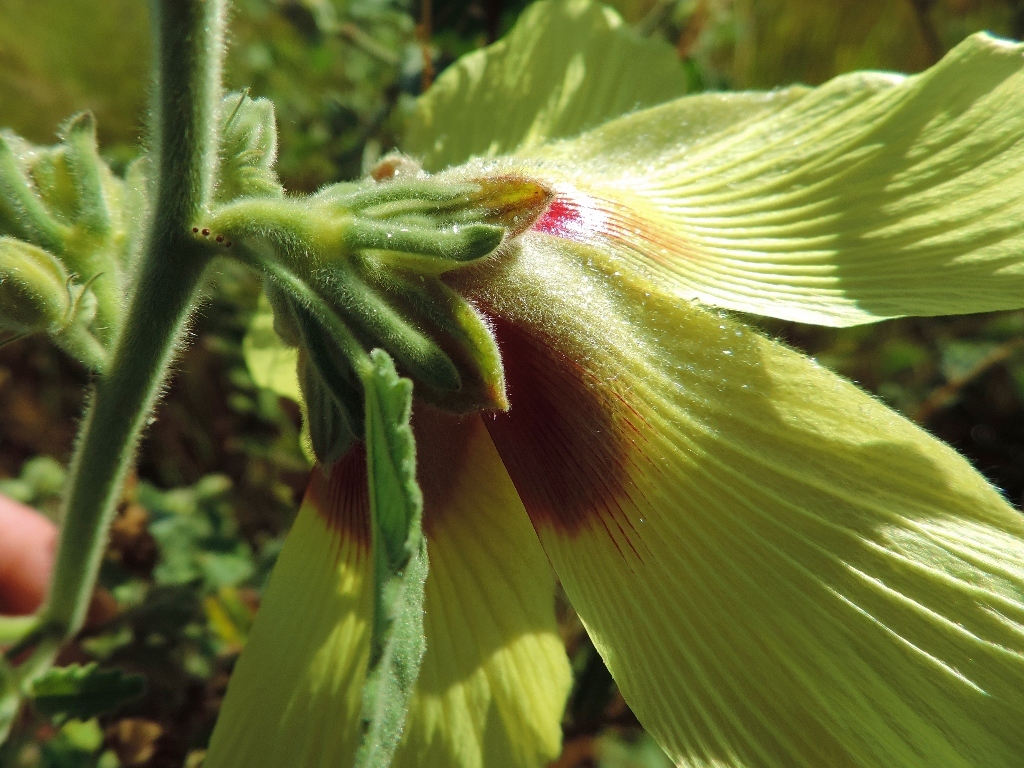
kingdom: Plantae
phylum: Tracheophyta
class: Magnoliopsida
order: Malvales
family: Malvaceae
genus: Hibiscus
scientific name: Hibiscus panduriformis
